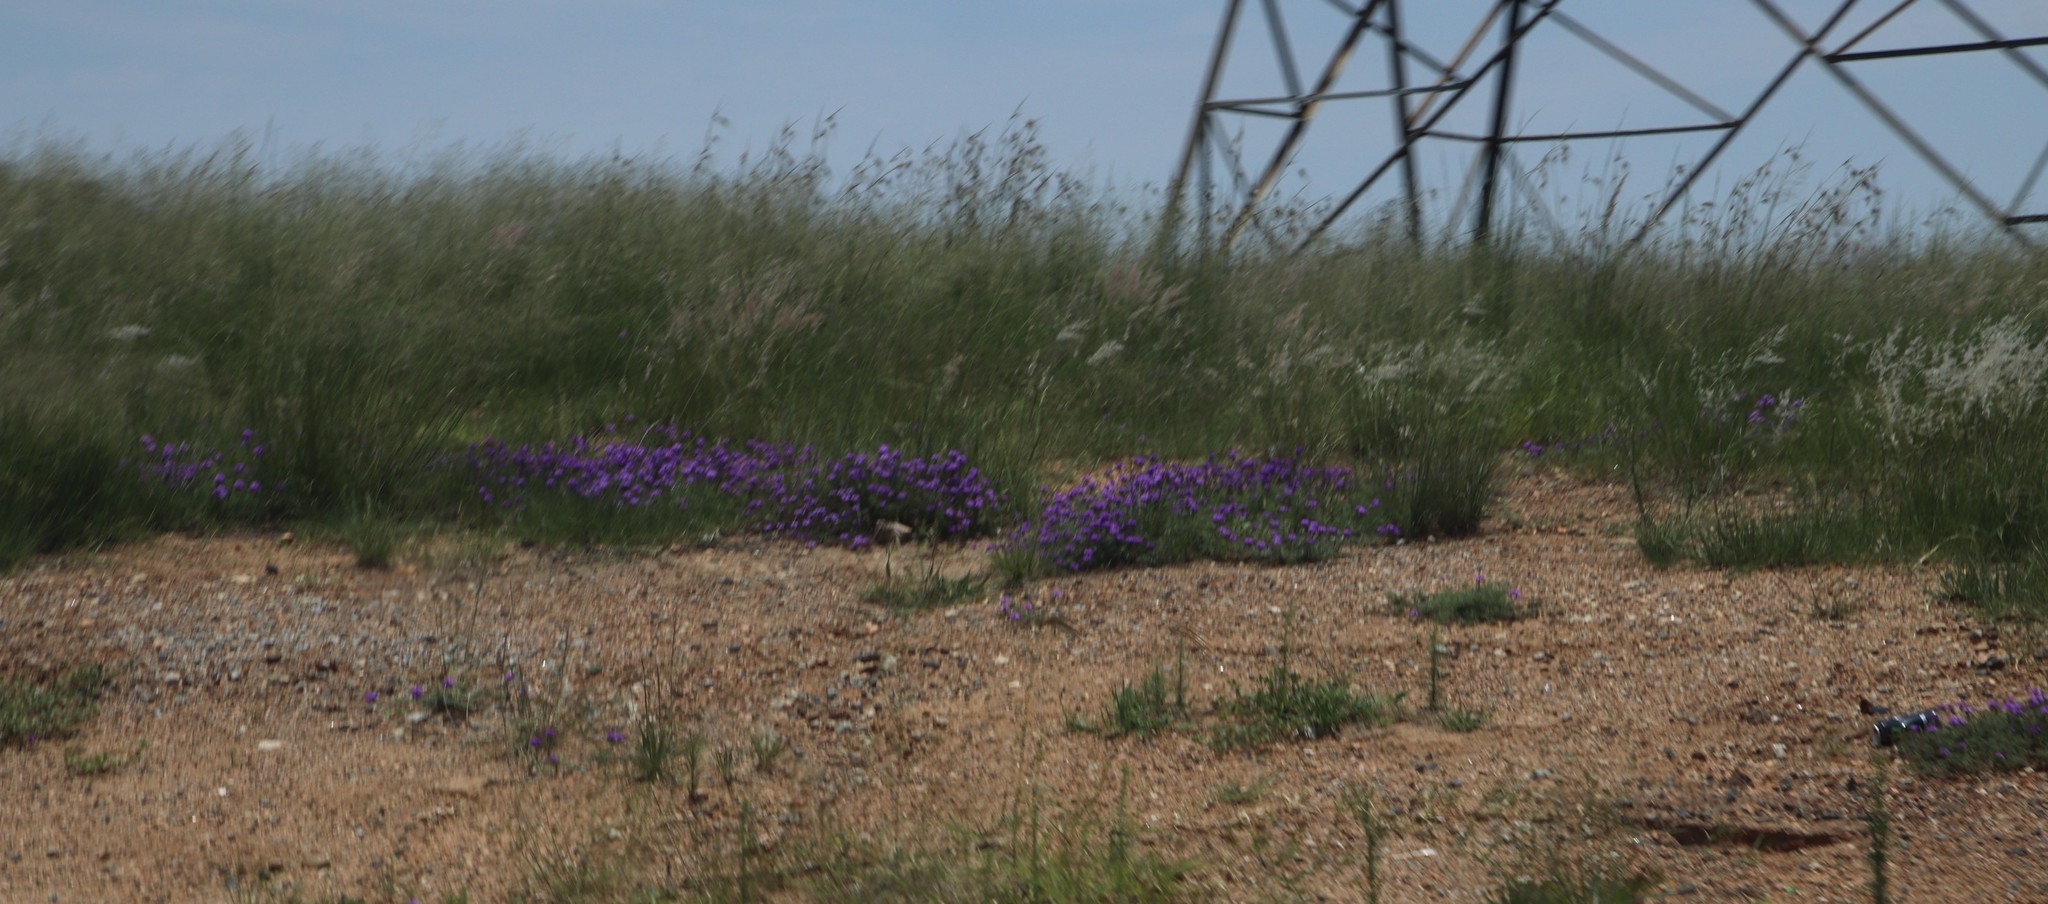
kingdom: Plantae
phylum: Tracheophyta
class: Magnoliopsida
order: Lamiales
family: Verbenaceae
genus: Verbena
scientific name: Verbena aristigera
